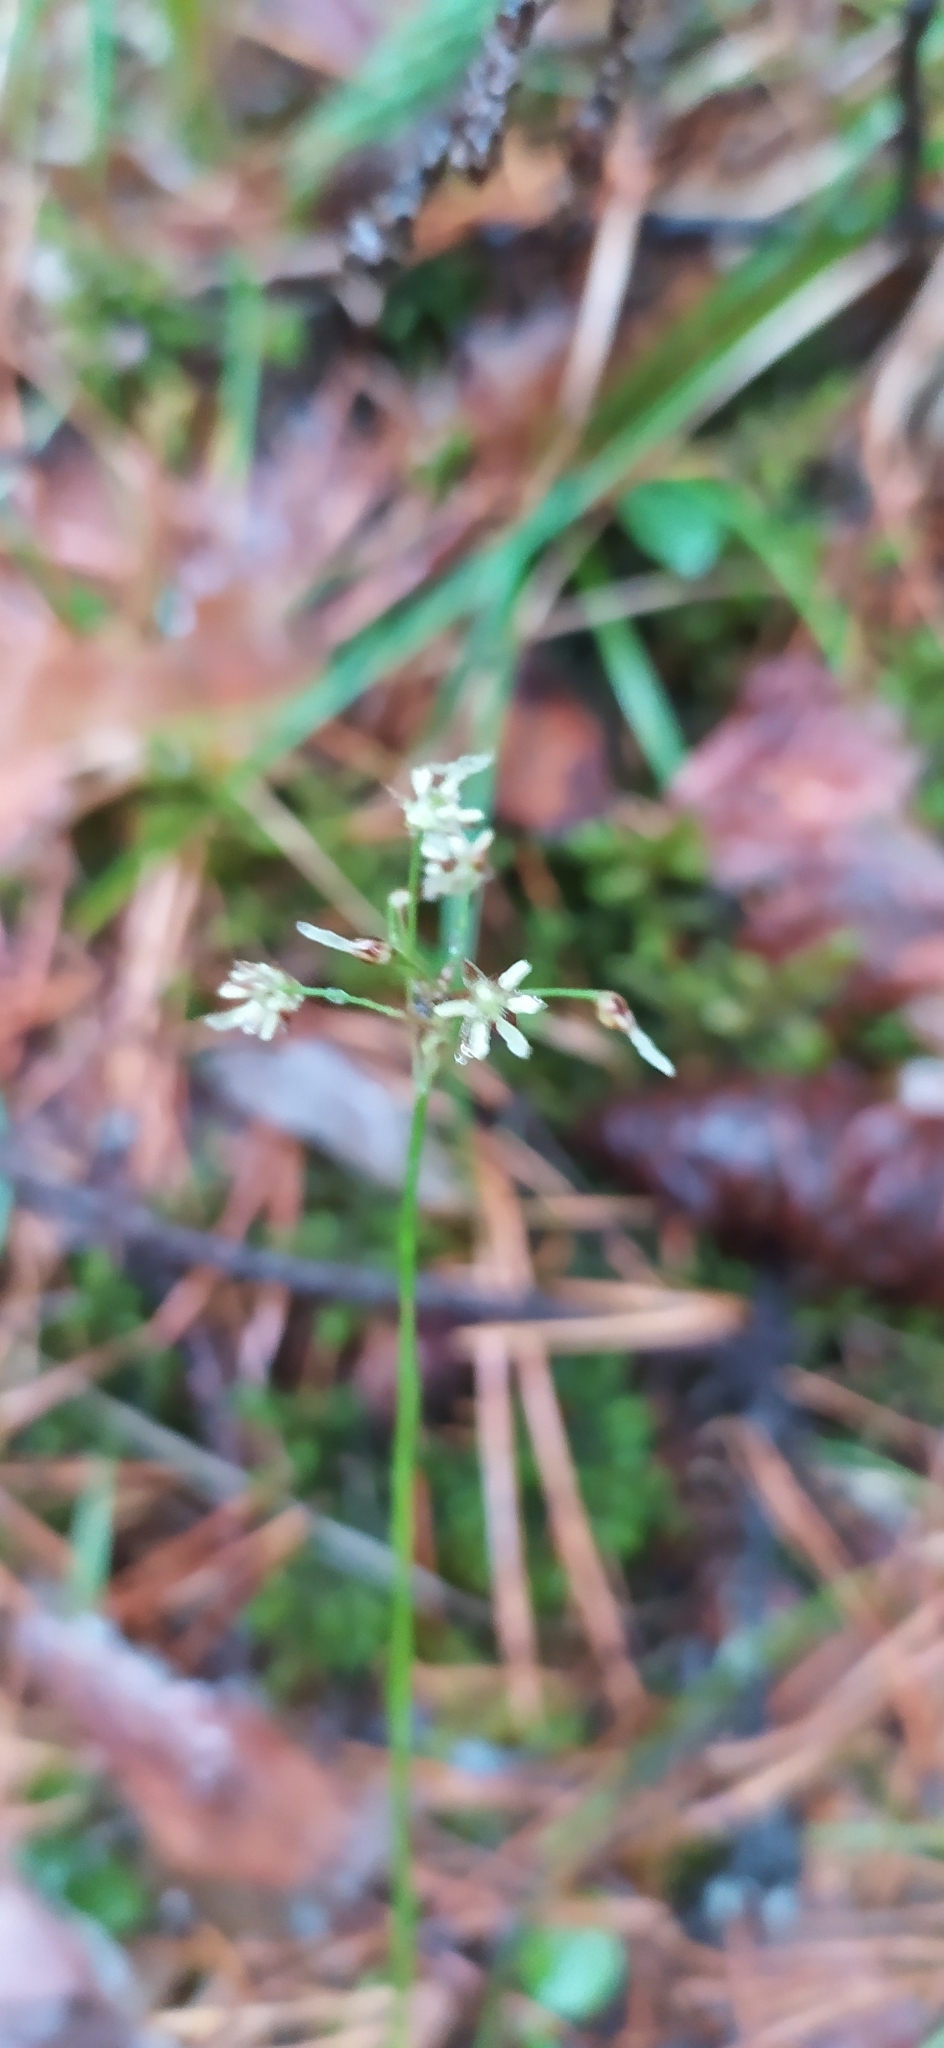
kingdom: Plantae
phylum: Tracheophyta
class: Liliopsida
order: Poales
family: Juncaceae
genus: Luzula
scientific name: Luzula pilosa
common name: Hairy wood-rush
